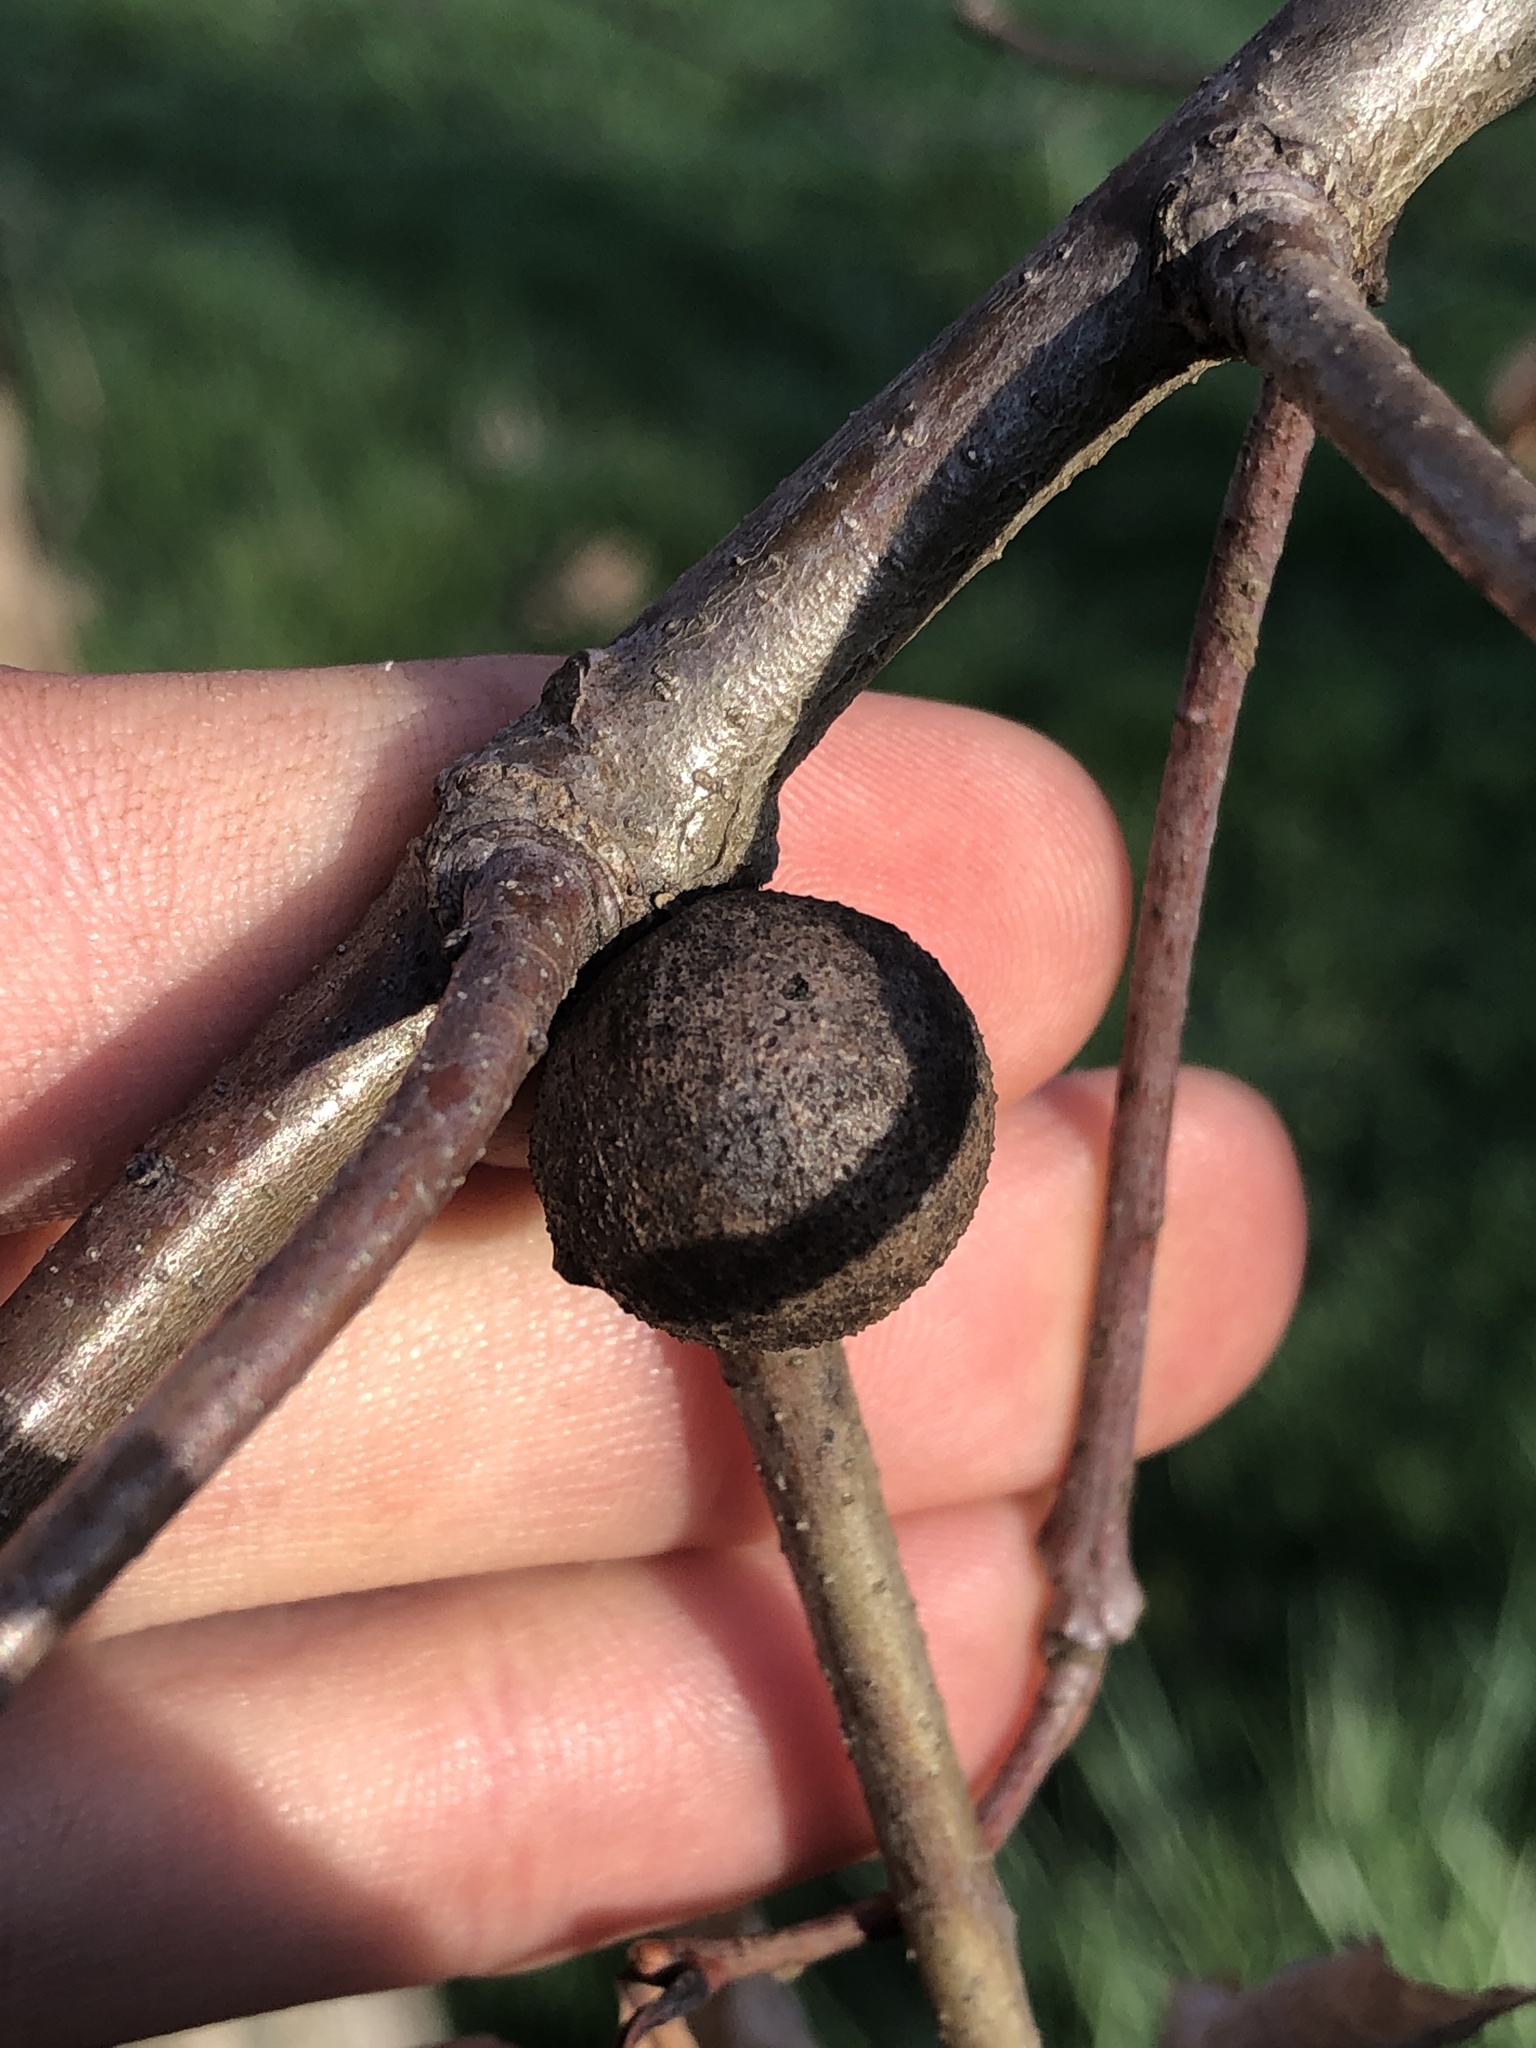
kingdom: Animalia
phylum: Arthropoda
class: Insecta
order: Hymenoptera
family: Cynipidae
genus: Disholcaspis
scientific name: Disholcaspis quercusglobulus
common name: Round bullet gall wasp
